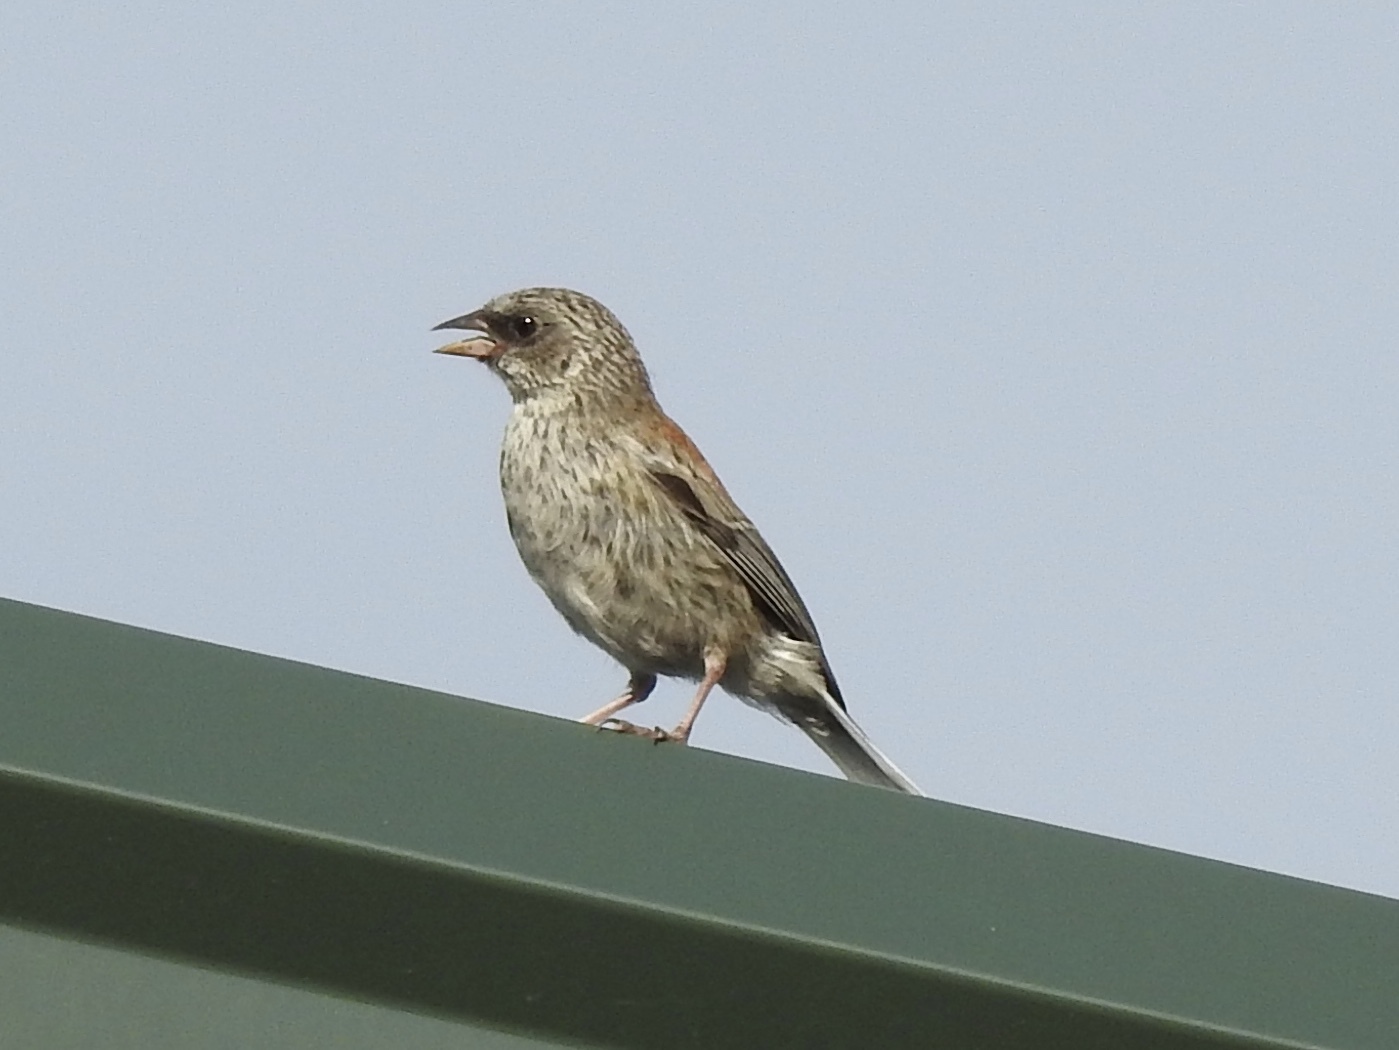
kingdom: Animalia
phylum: Chordata
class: Aves
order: Passeriformes
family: Passerellidae
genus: Junco
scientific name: Junco hyemalis
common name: Dark-eyed junco
